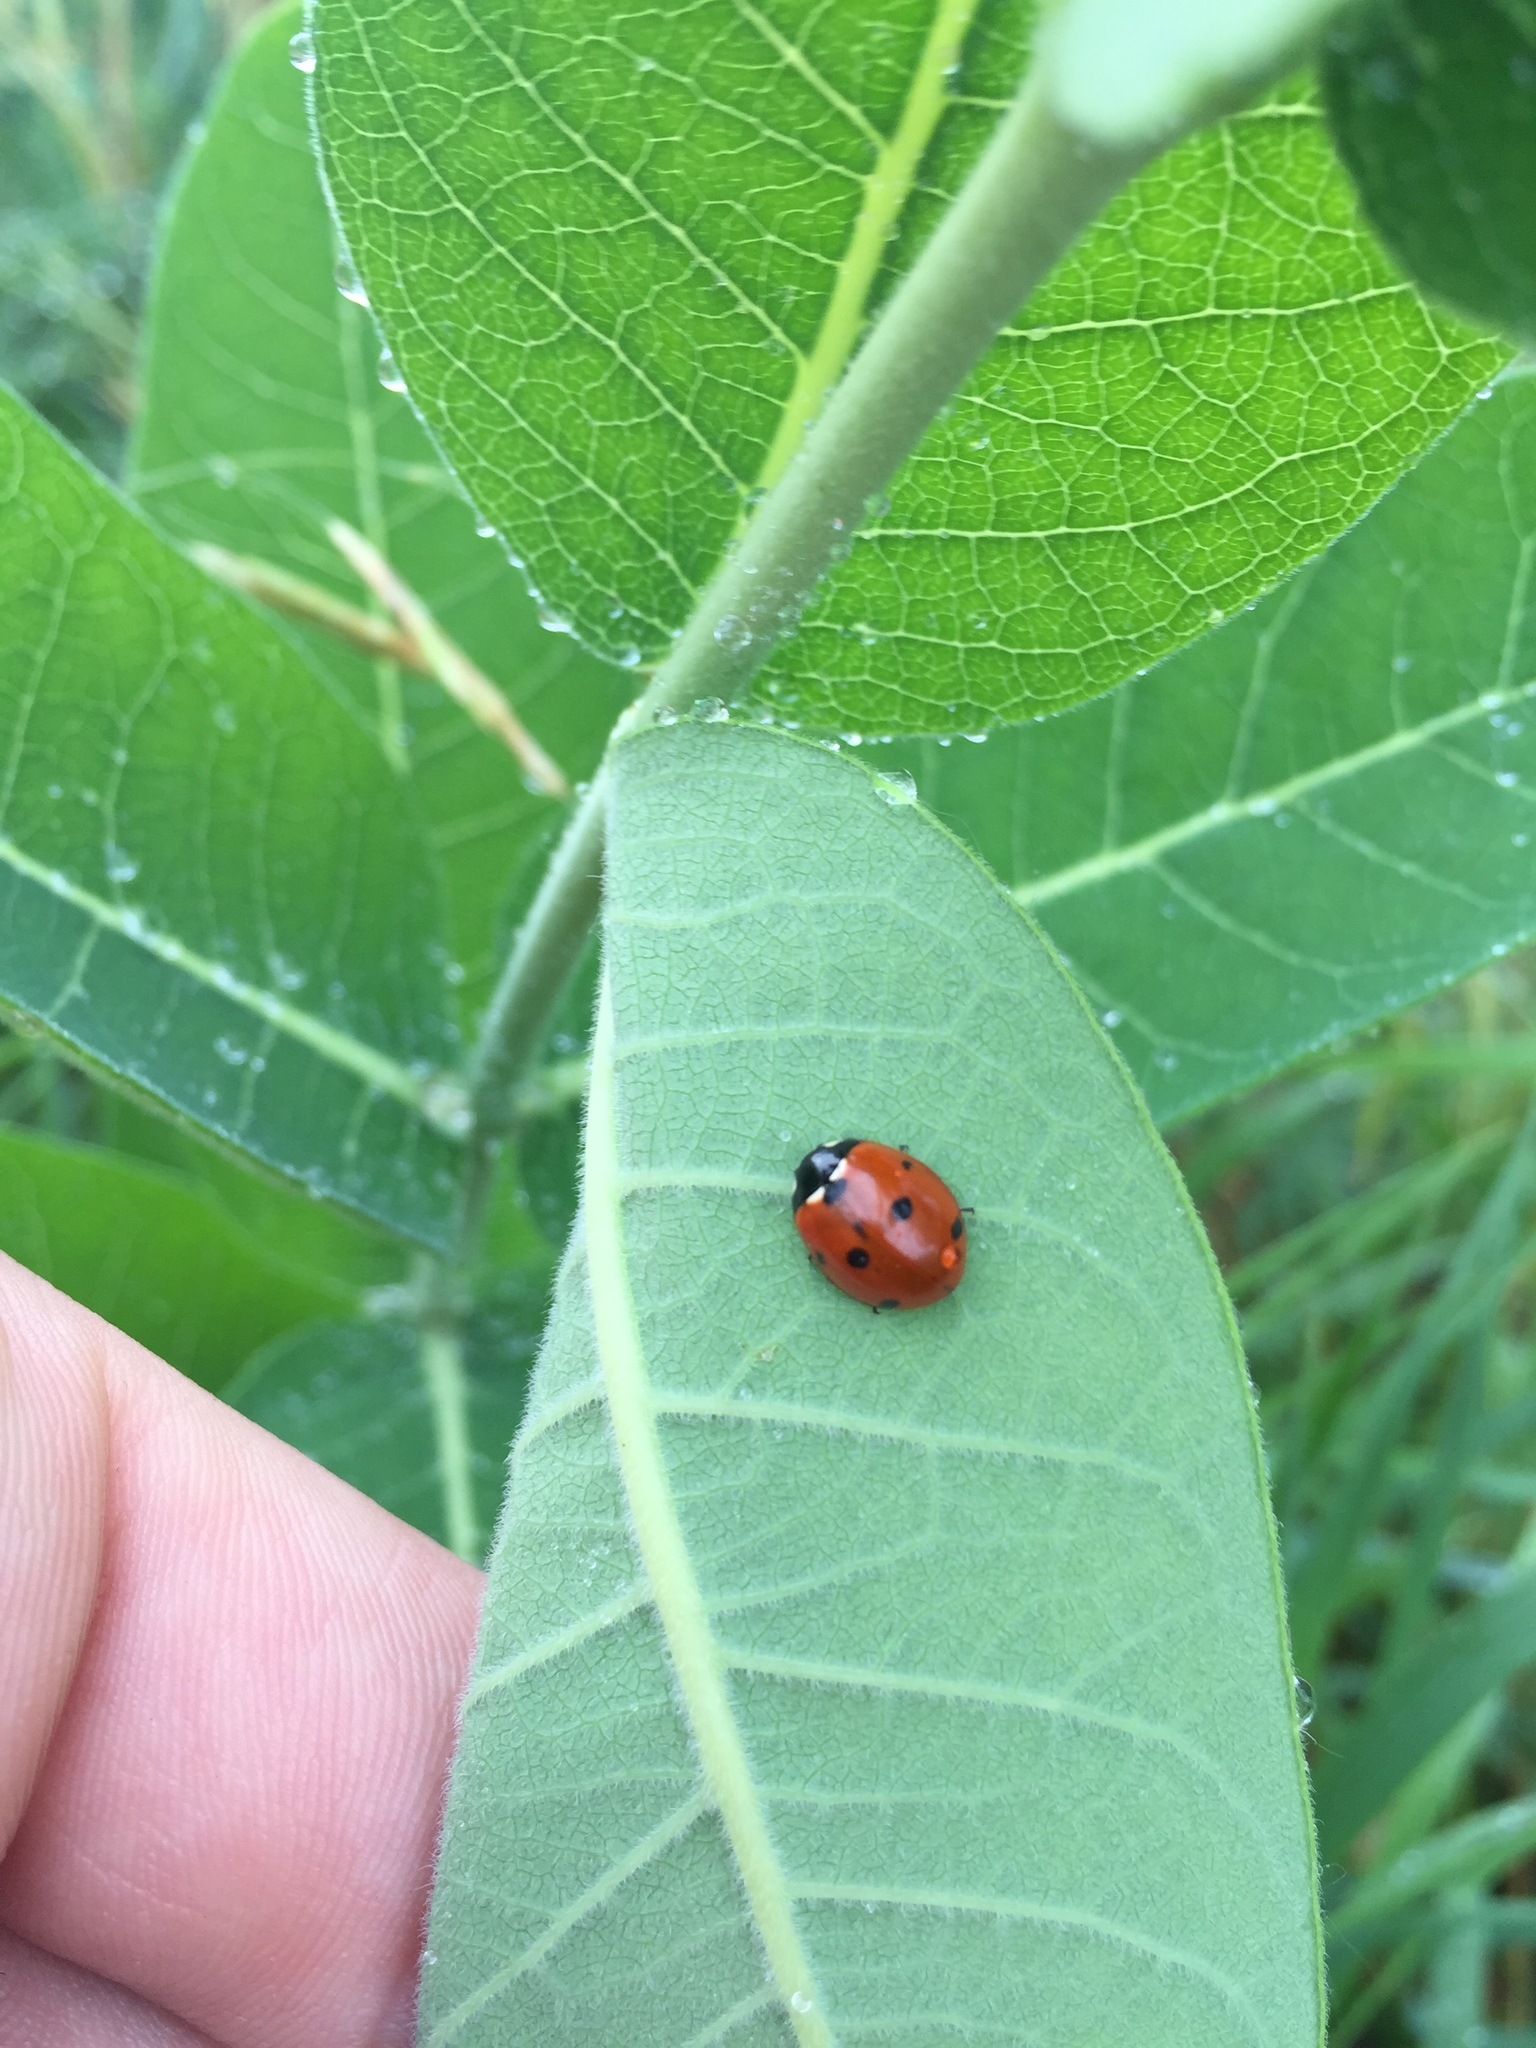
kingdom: Animalia
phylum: Arthropoda
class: Insecta
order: Coleoptera
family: Coccinellidae
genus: Coccinella
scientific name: Coccinella septempunctata
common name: Sevenspotted lady beetle
